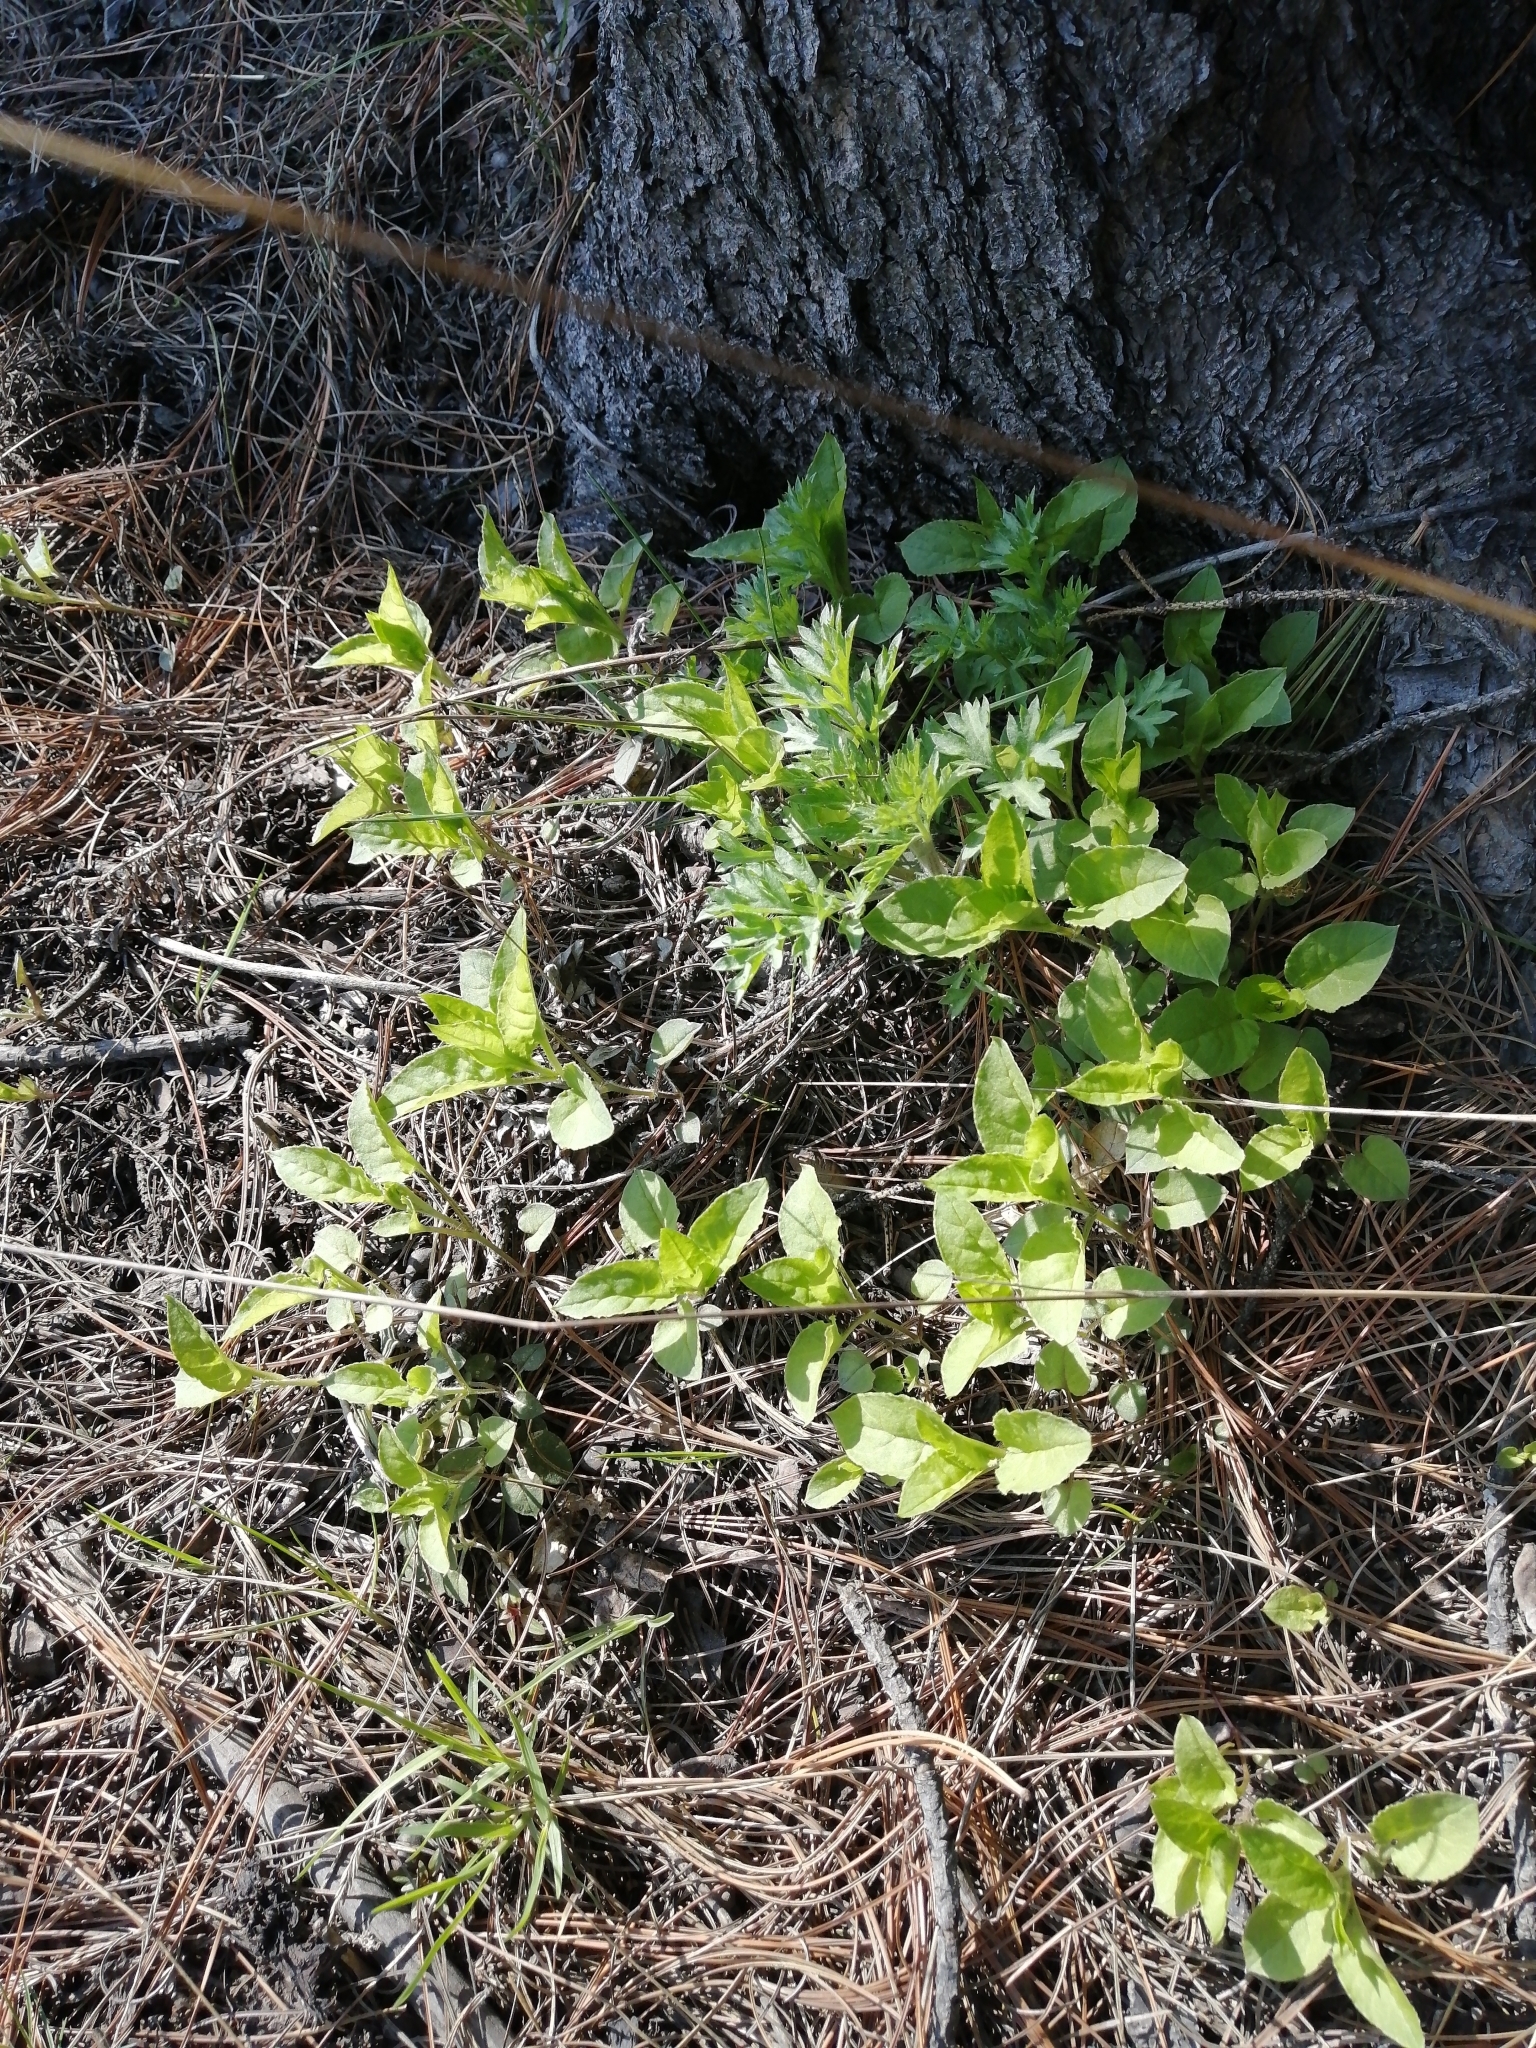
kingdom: Plantae
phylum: Tracheophyta
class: Magnoliopsida
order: Caryophyllales
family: Caryophyllaceae
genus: Stellaria
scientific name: Stellaria bungeana
